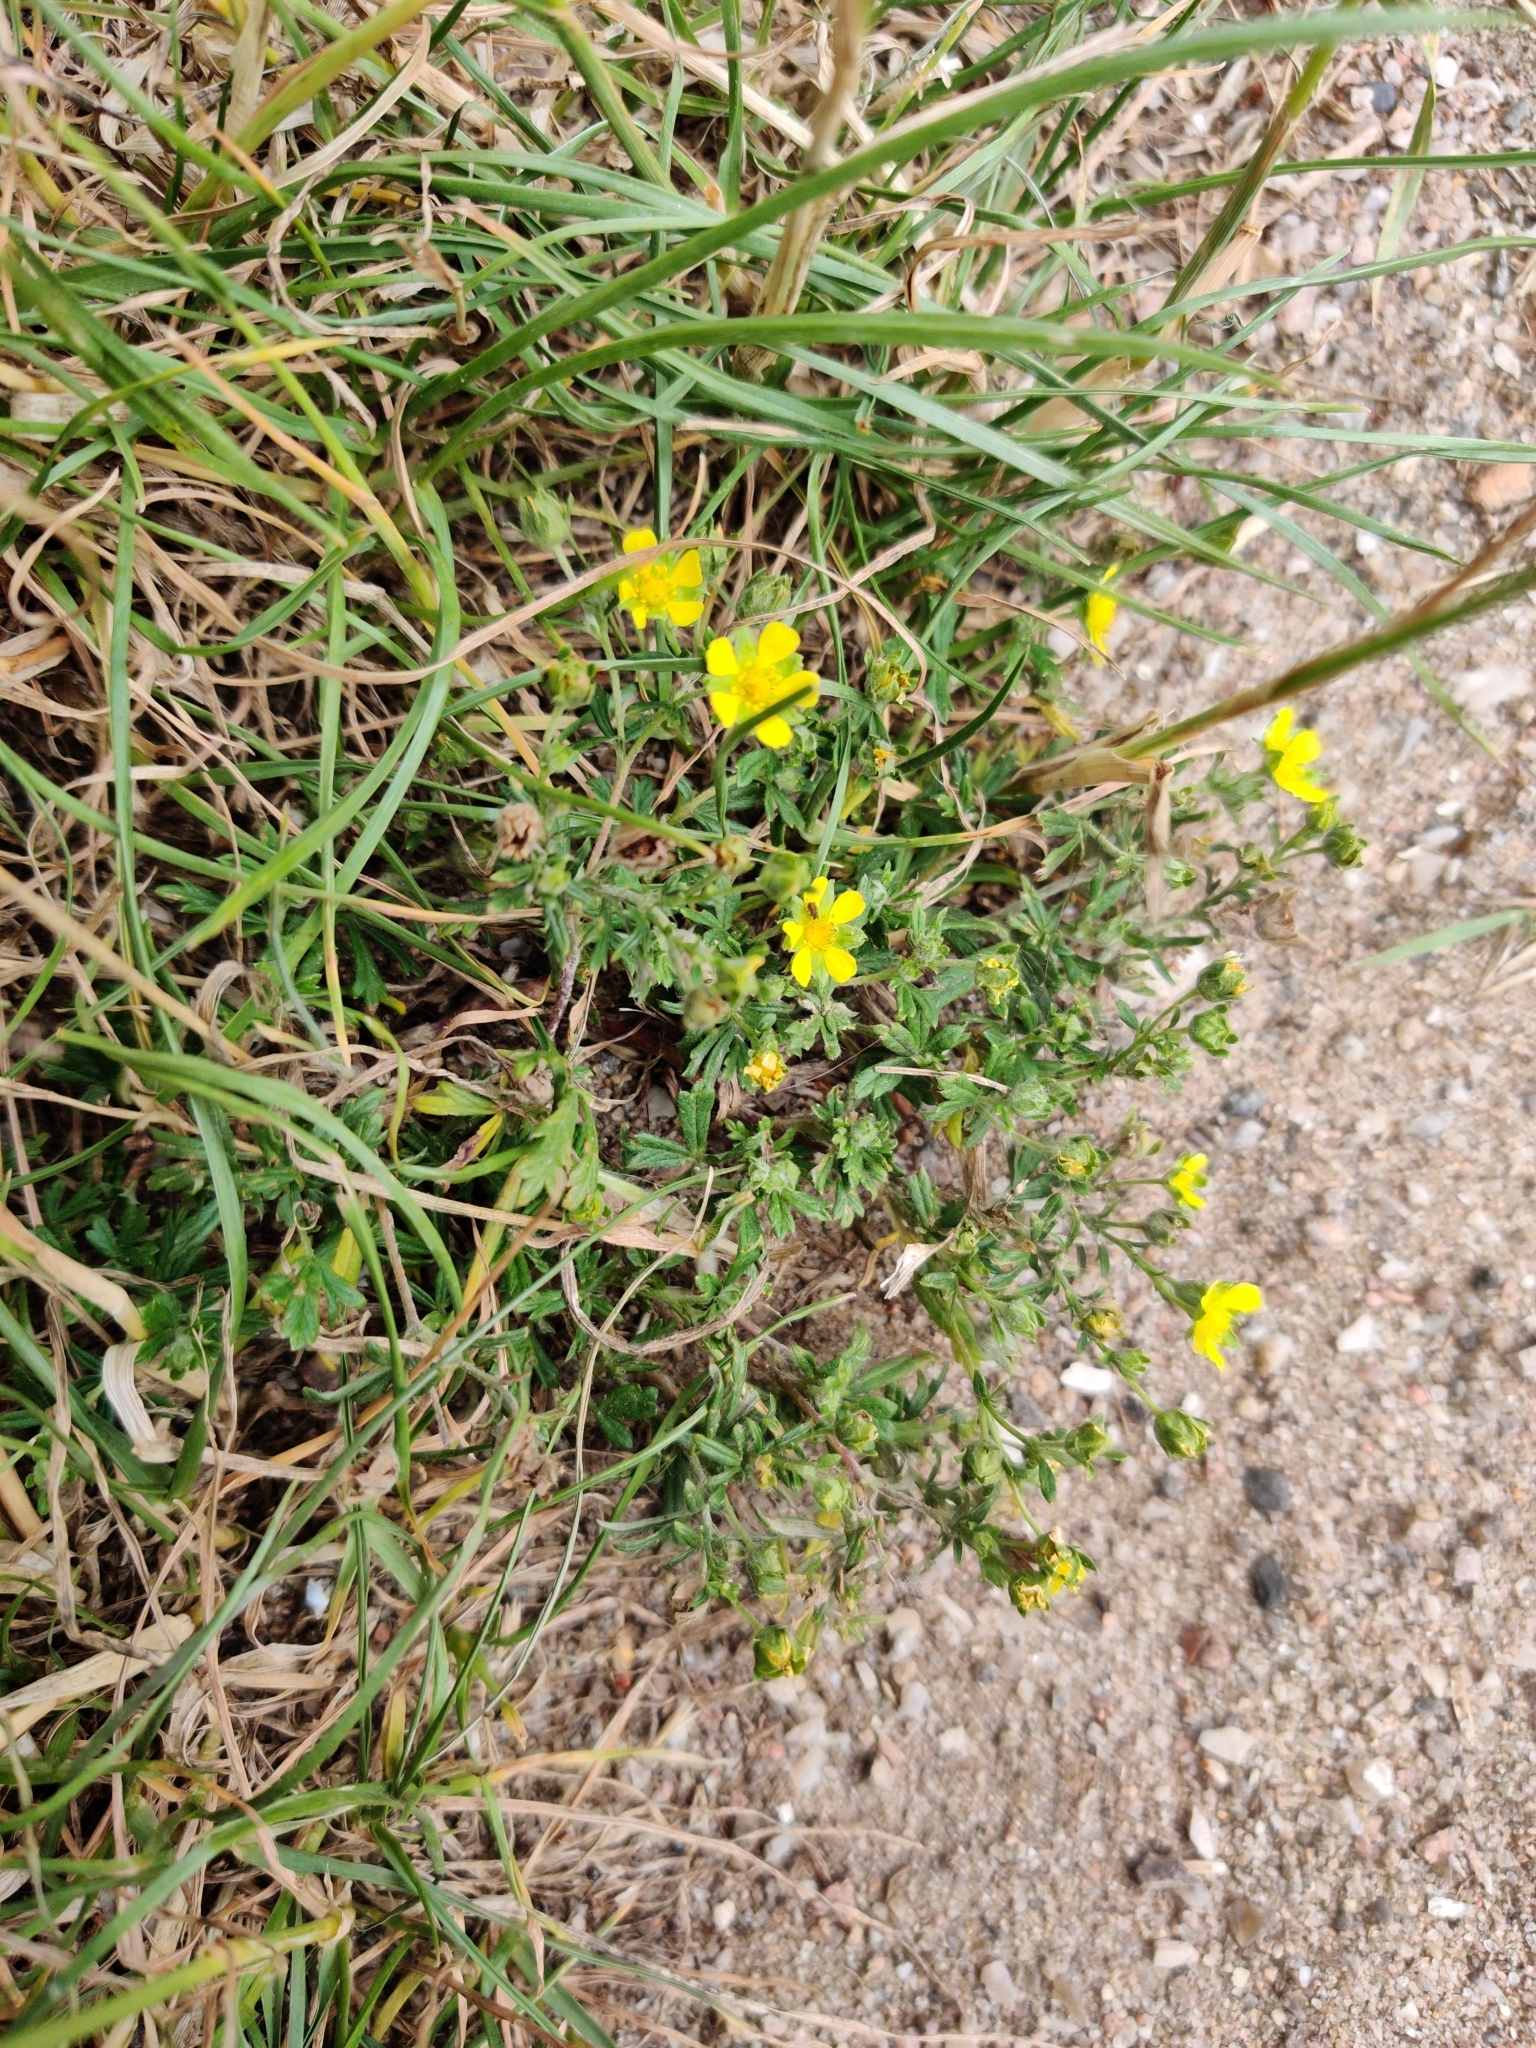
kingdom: Plantae
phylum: Tracheophyta
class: Magnoliopsida
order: Rosales
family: Rosaceae
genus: Potentilla
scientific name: Potentilla argentea
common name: Hoary cinquefoil
